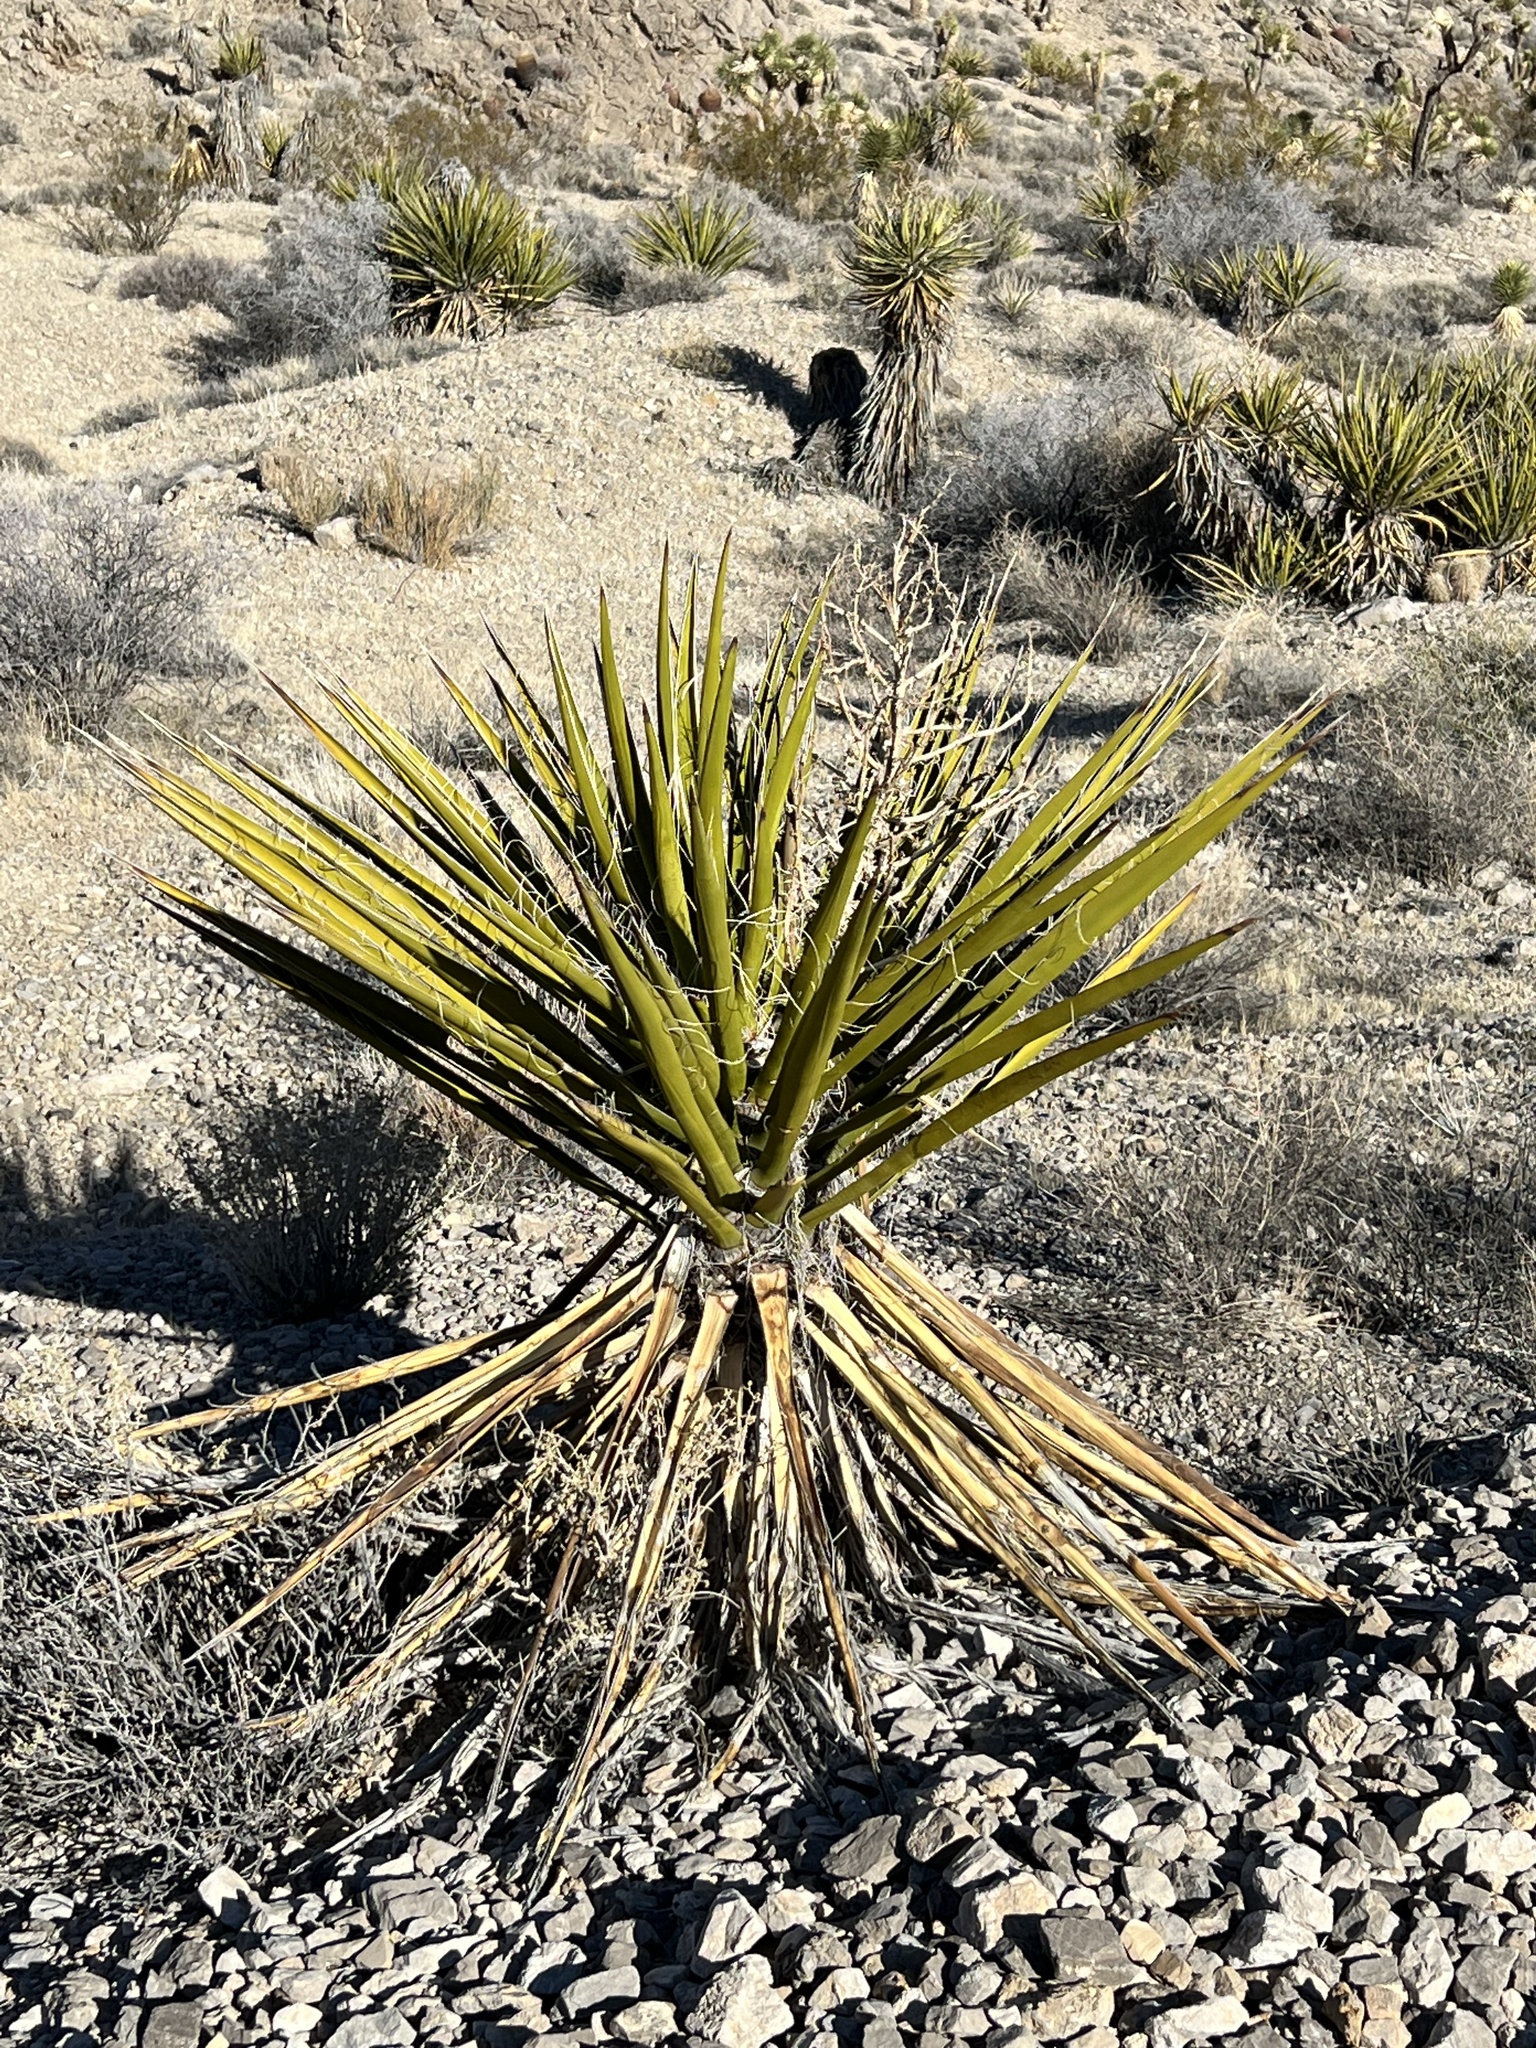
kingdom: Plantae
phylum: Tracheophyta
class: Liliopsida
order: Asparagales
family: Asparagaceae
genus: Yucca
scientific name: Yucca schidigera
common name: Mojave yucca
